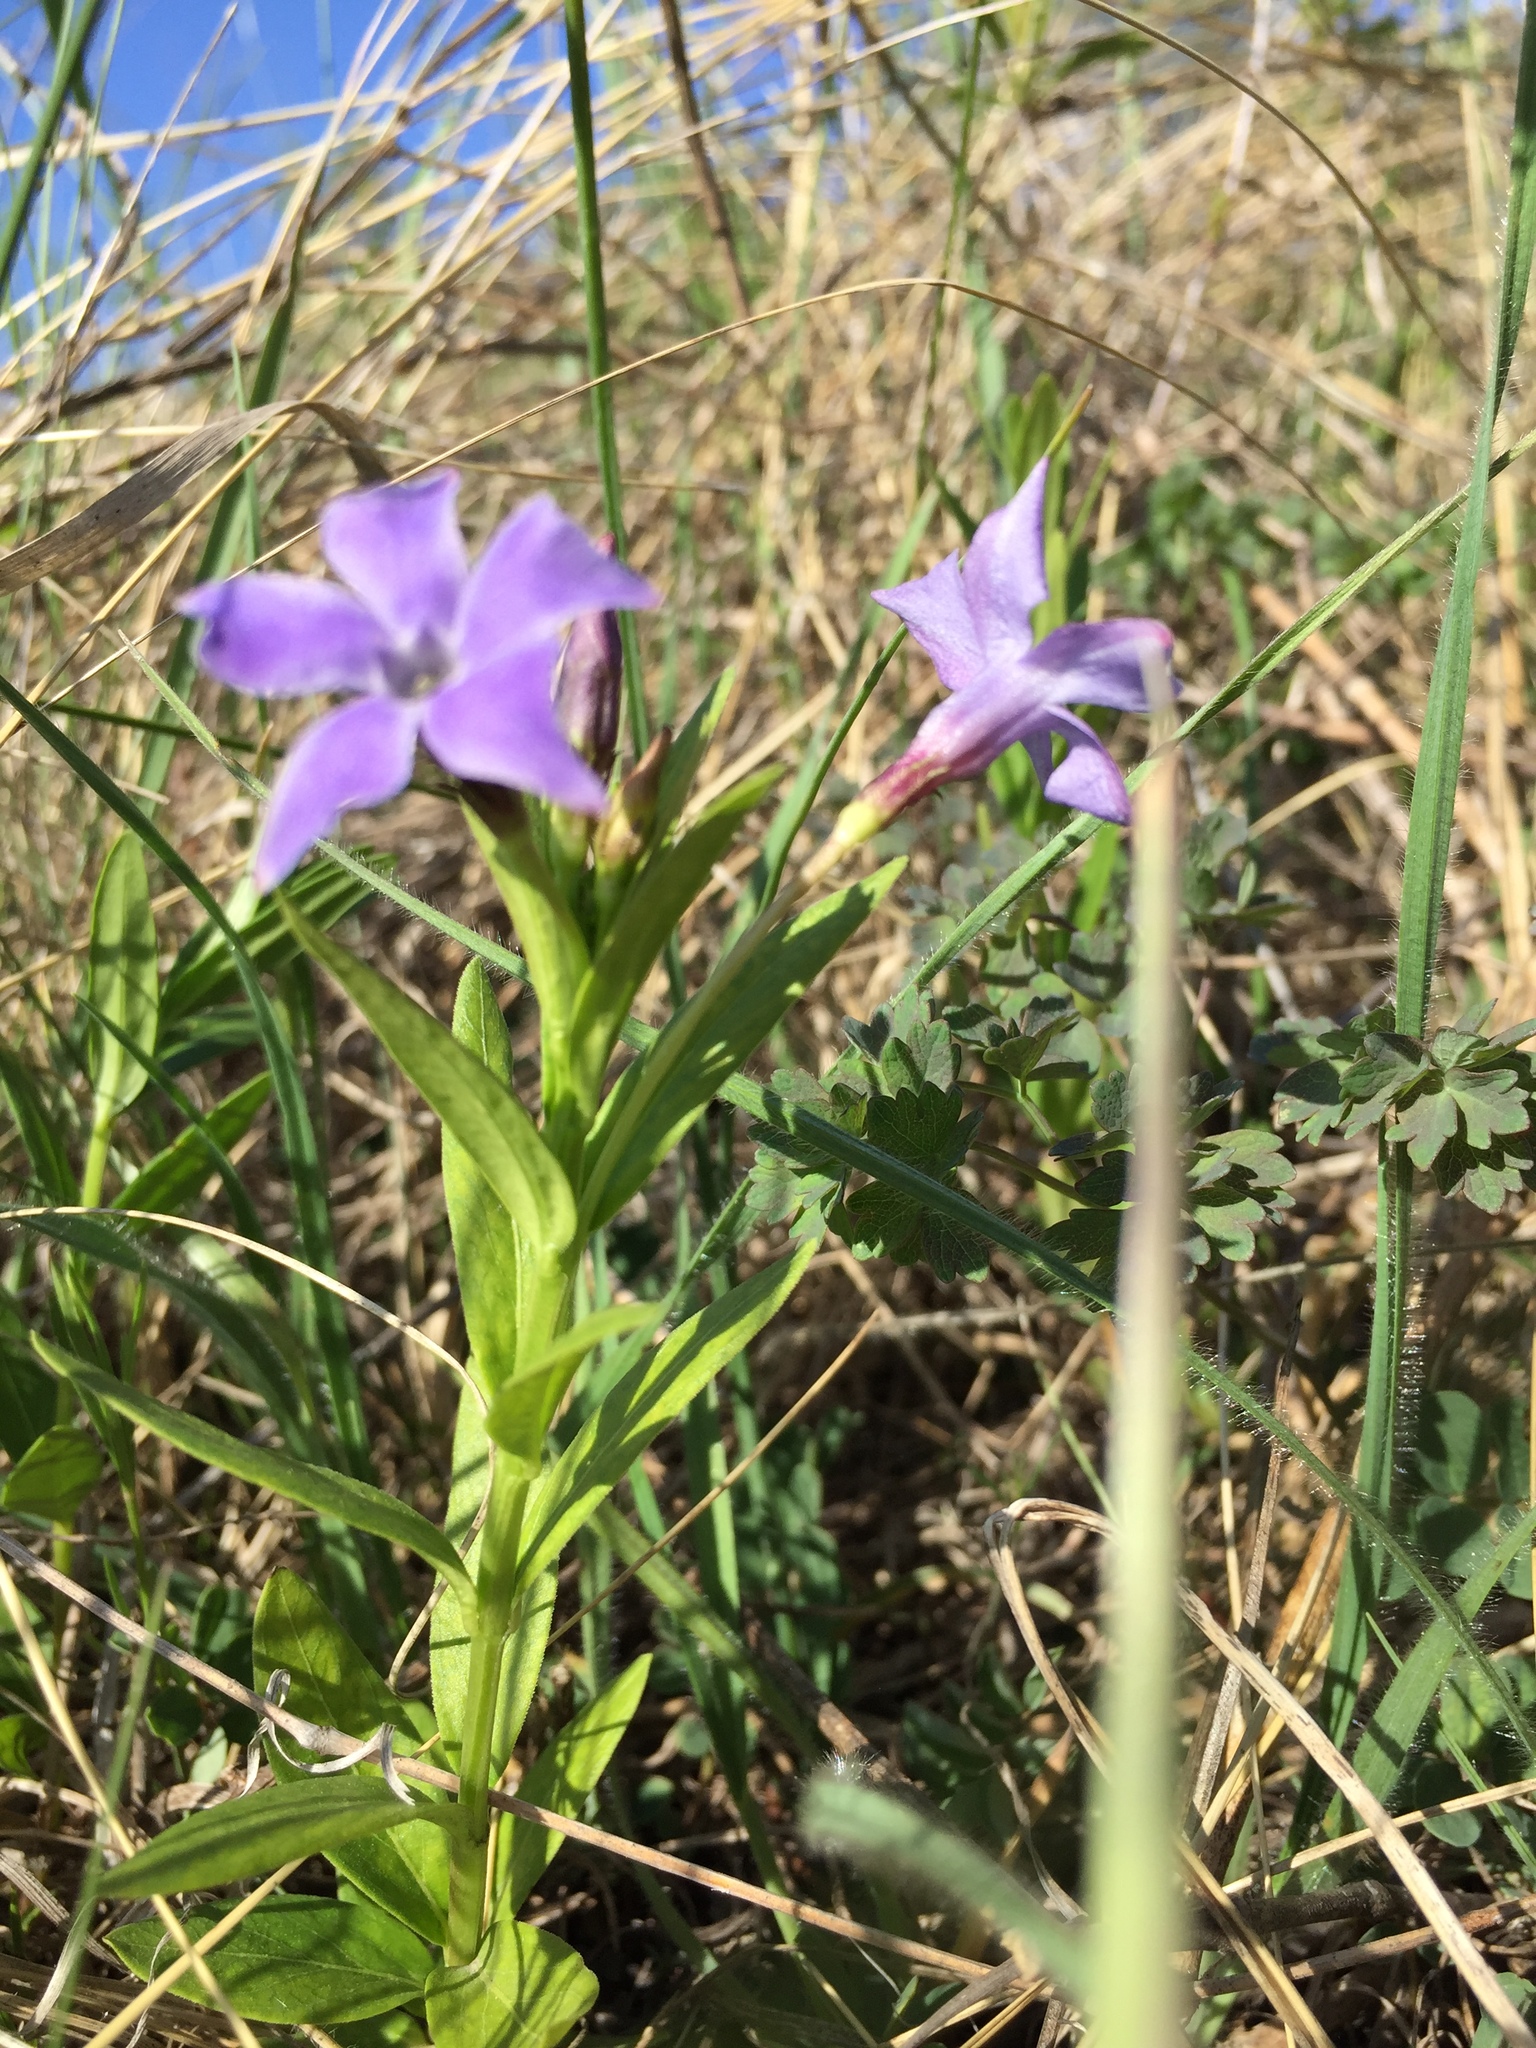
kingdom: Plantae
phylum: Tracheophyta
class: Magnoliopsida
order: Gentianales
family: Apocynaceae
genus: Vinca
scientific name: Vinca herbacea
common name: Herbaceous periwinkle
